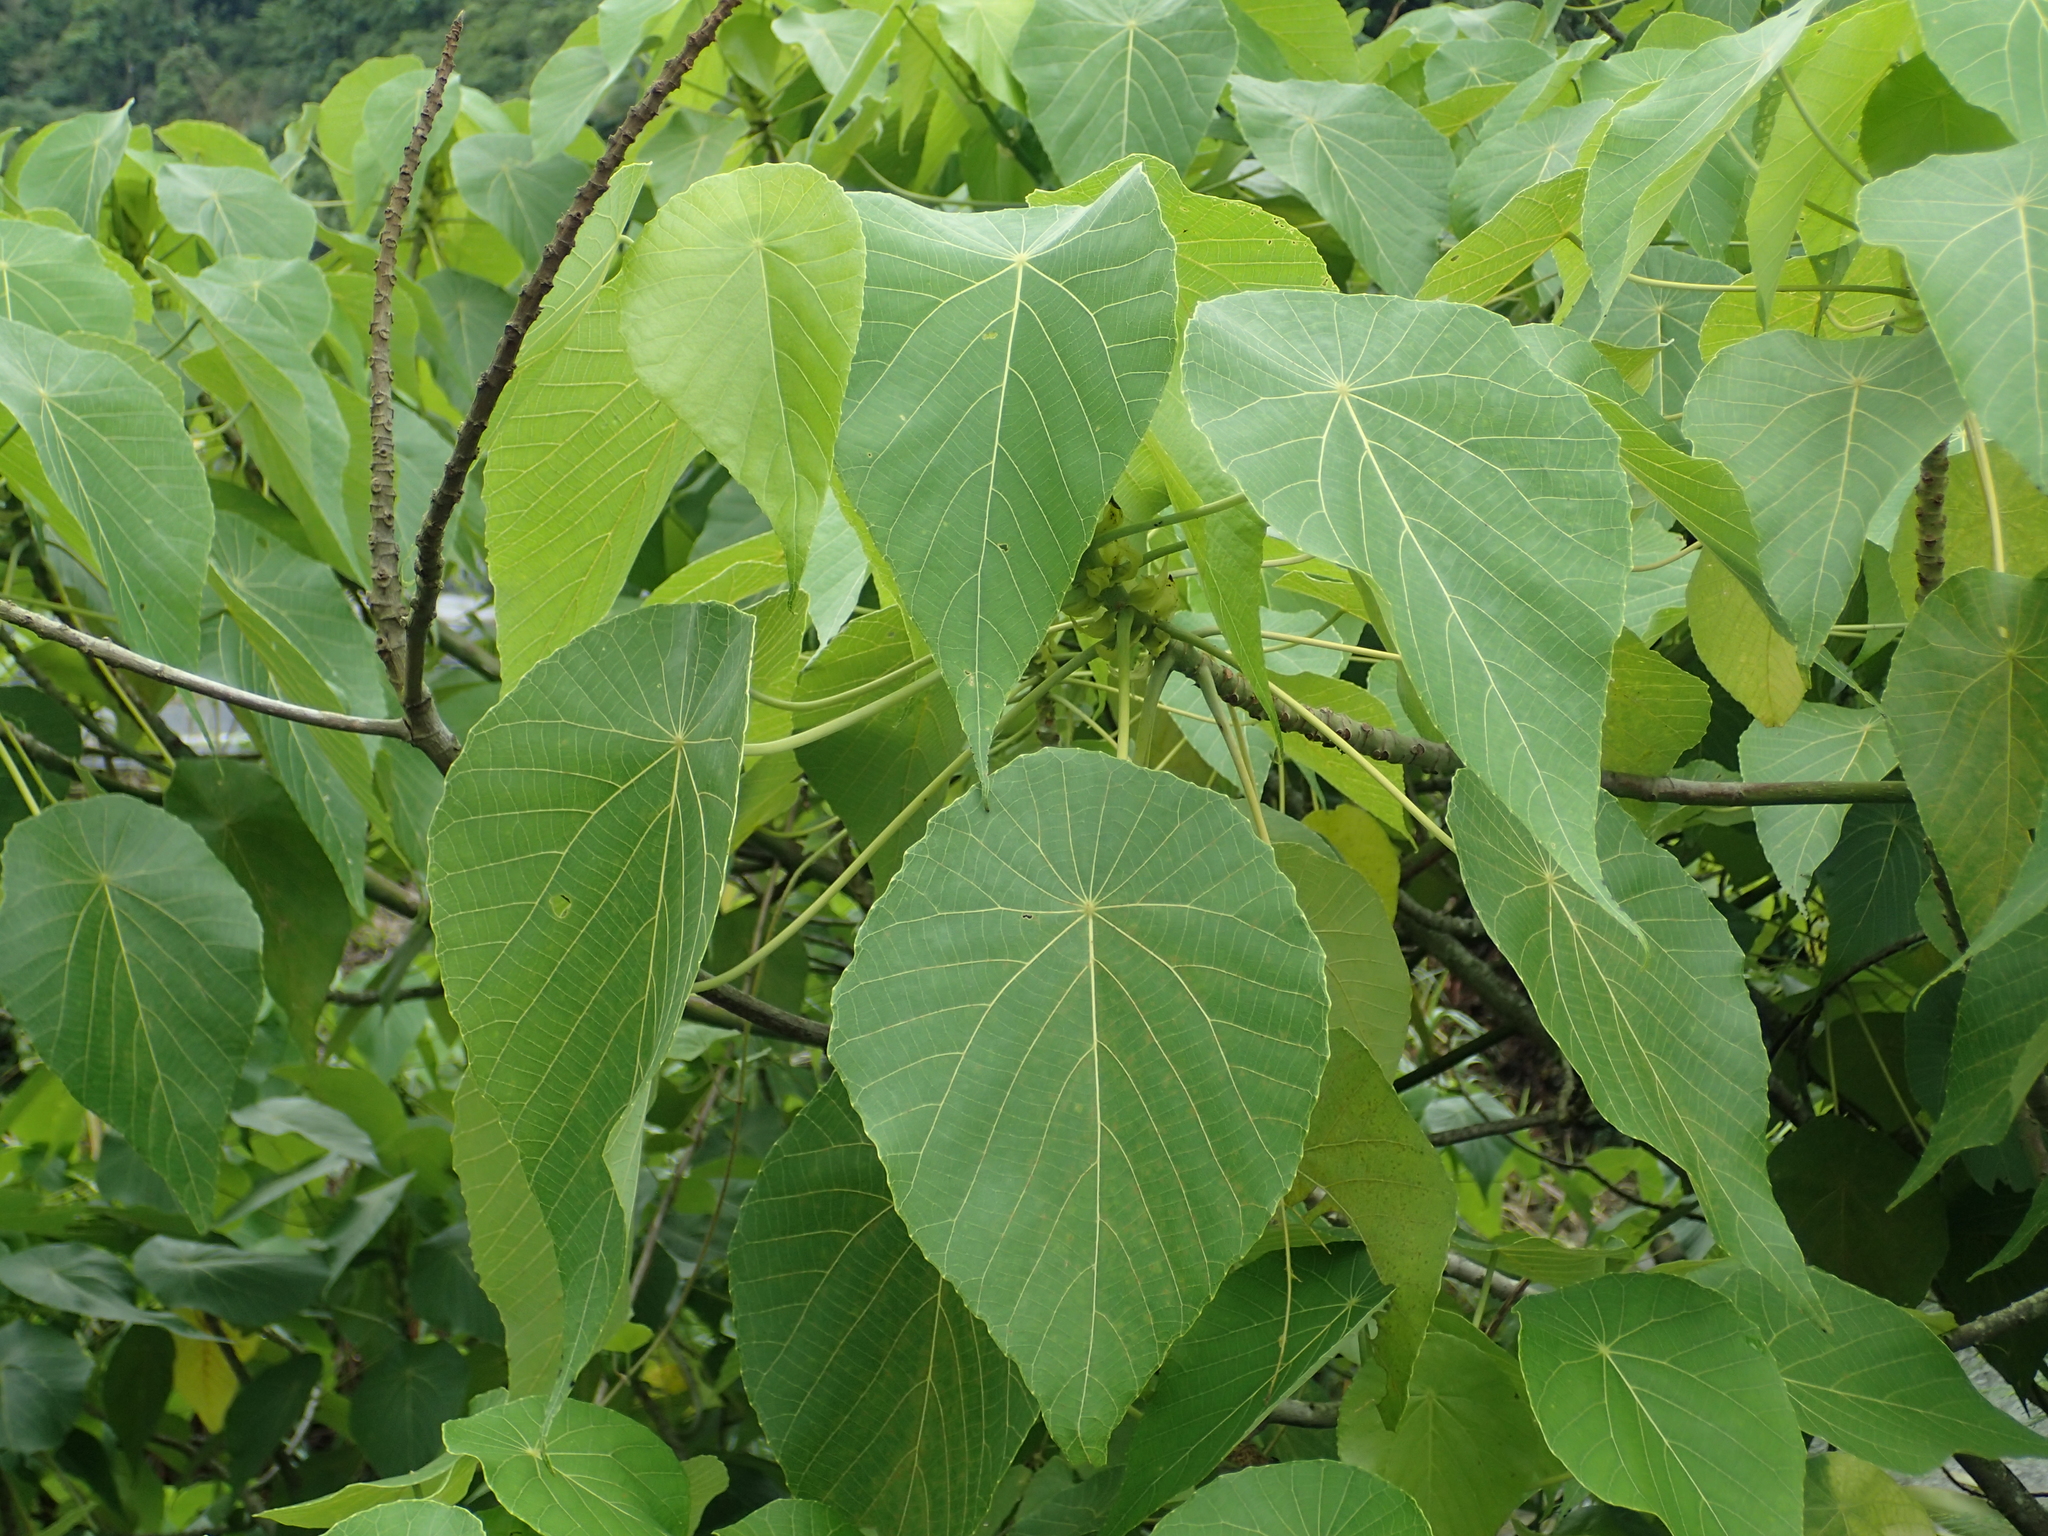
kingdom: Plantae
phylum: Tracheophyta
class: Magnoliopsida
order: Malpighiales
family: Euphorbiaceae
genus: Macaranga
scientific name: Macaranga tanarius
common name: Parasol leaf tree
